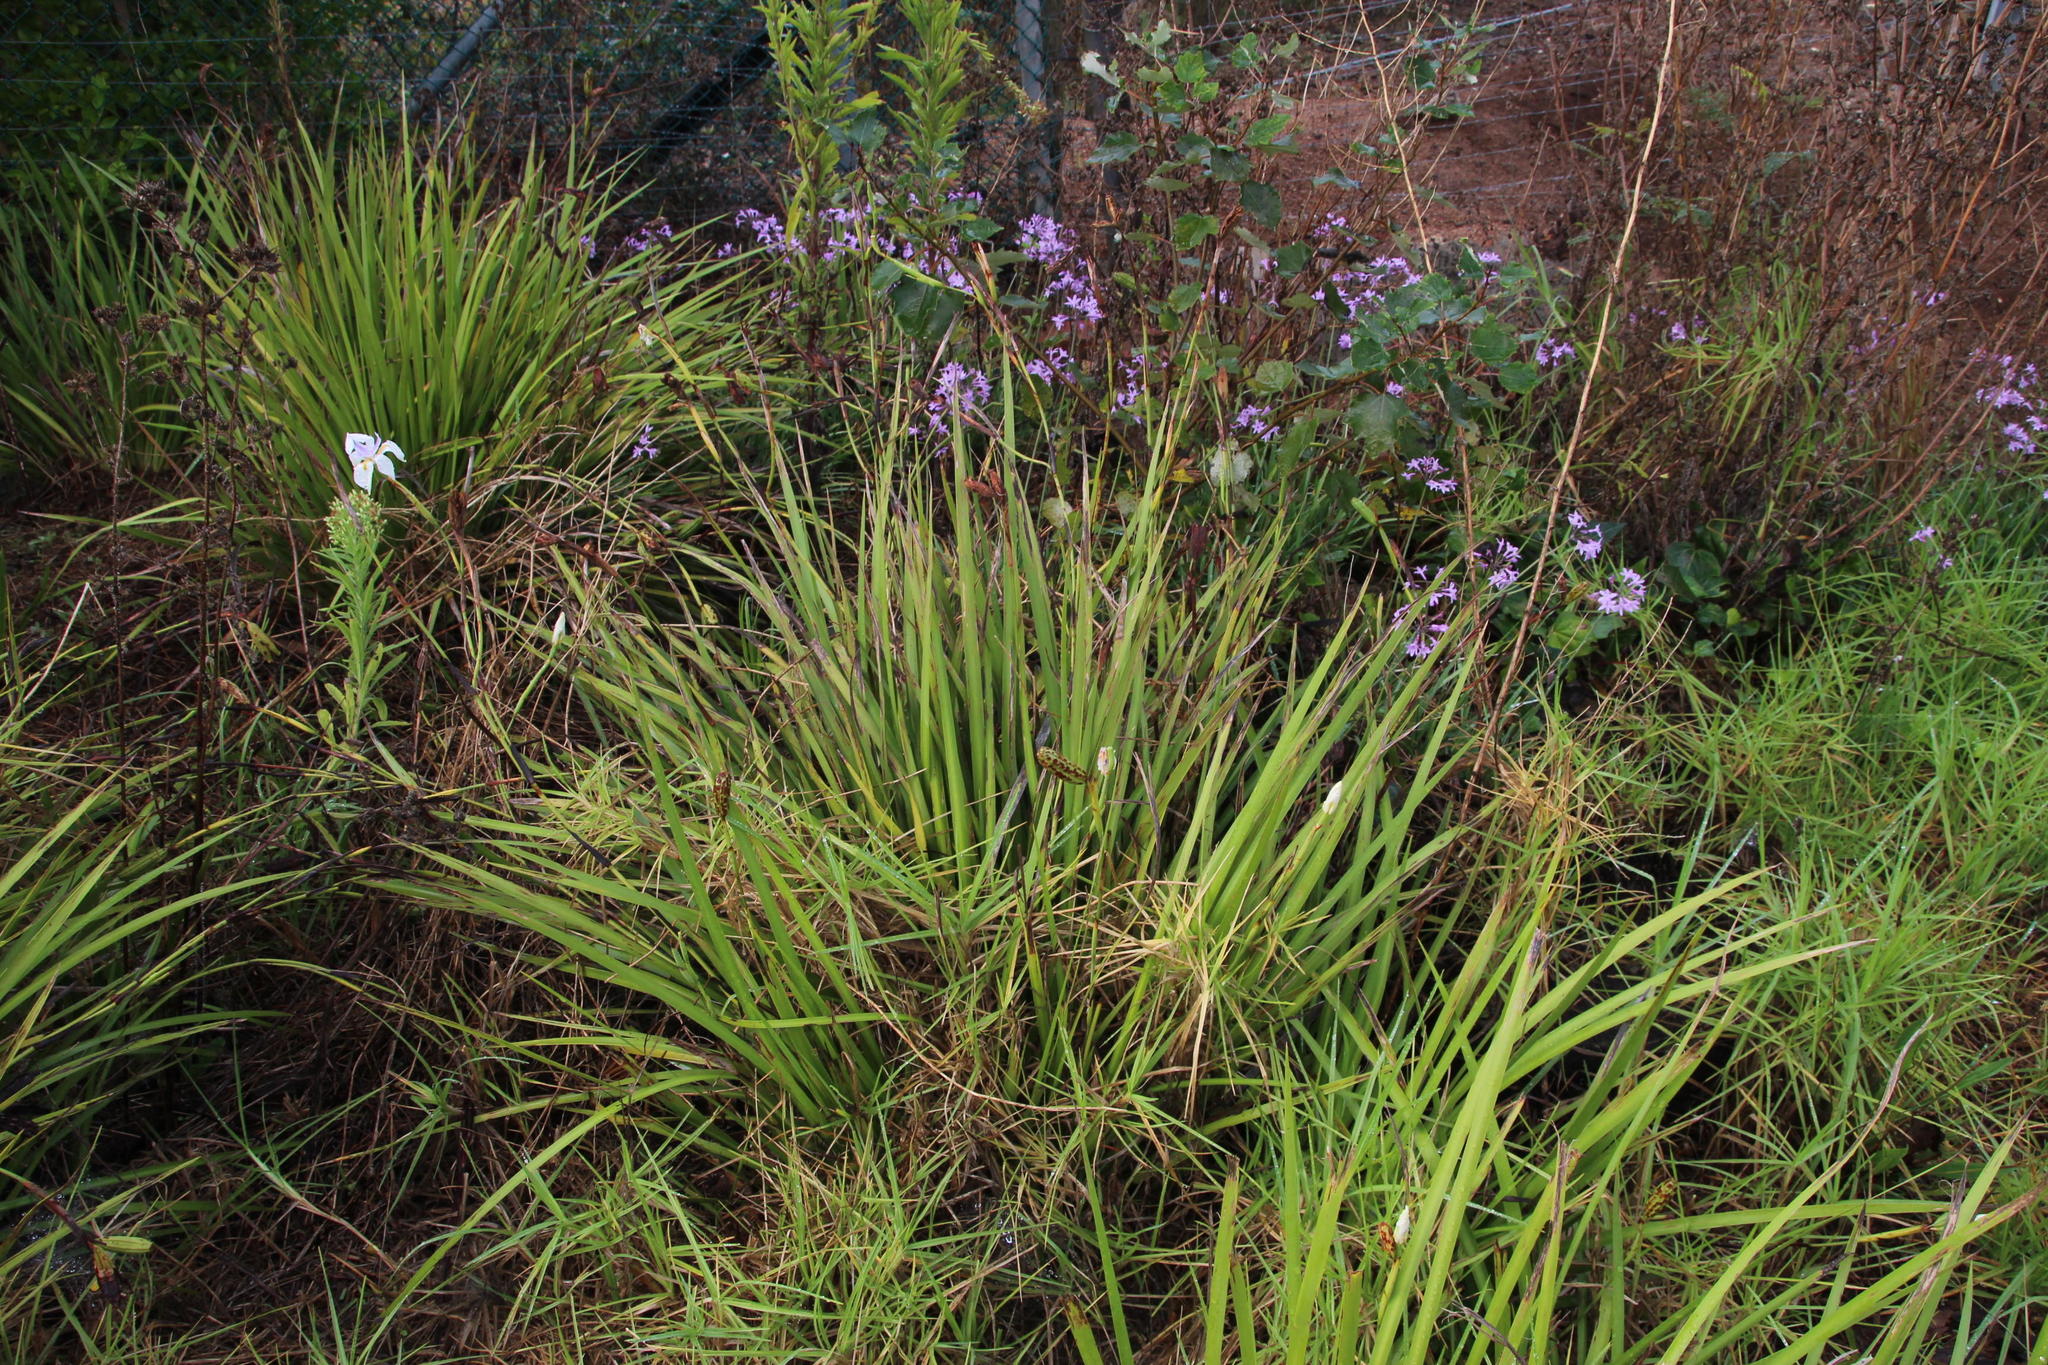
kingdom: Plantae
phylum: Tracheophyta
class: Liliopsida
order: Asparagales
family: Iridaceae
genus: Dietes
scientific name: Dietes grandiflora
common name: Wild iris
